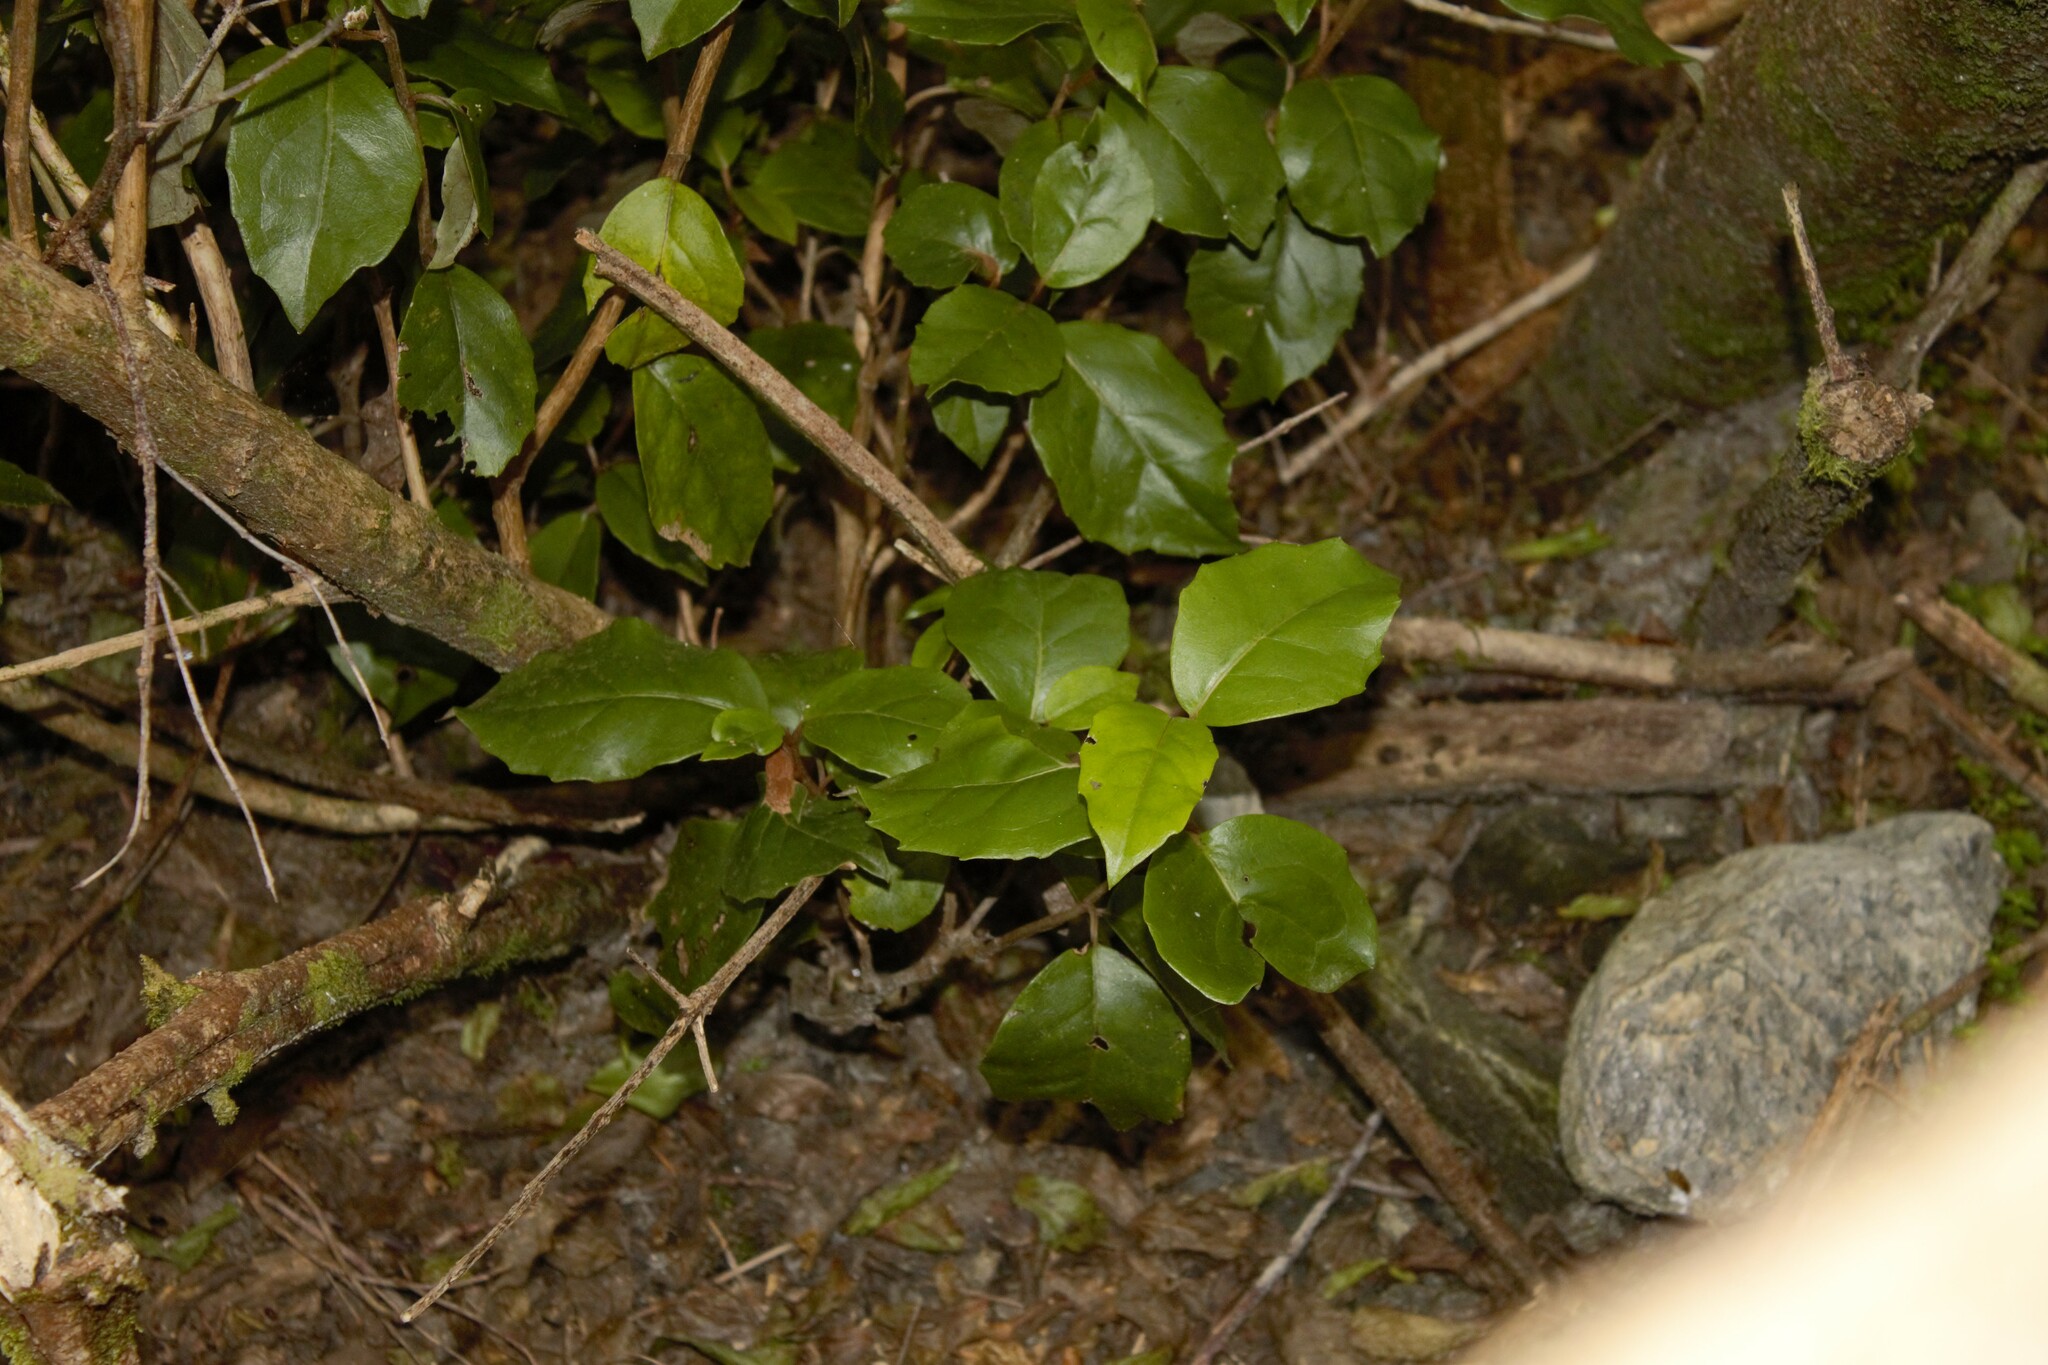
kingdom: Plantae
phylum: Tracheophyta
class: Magnoliopsida
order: Asterales
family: Asteraceae
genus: Olearia
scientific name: Olearia arborescens
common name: Glossy tree daisy
